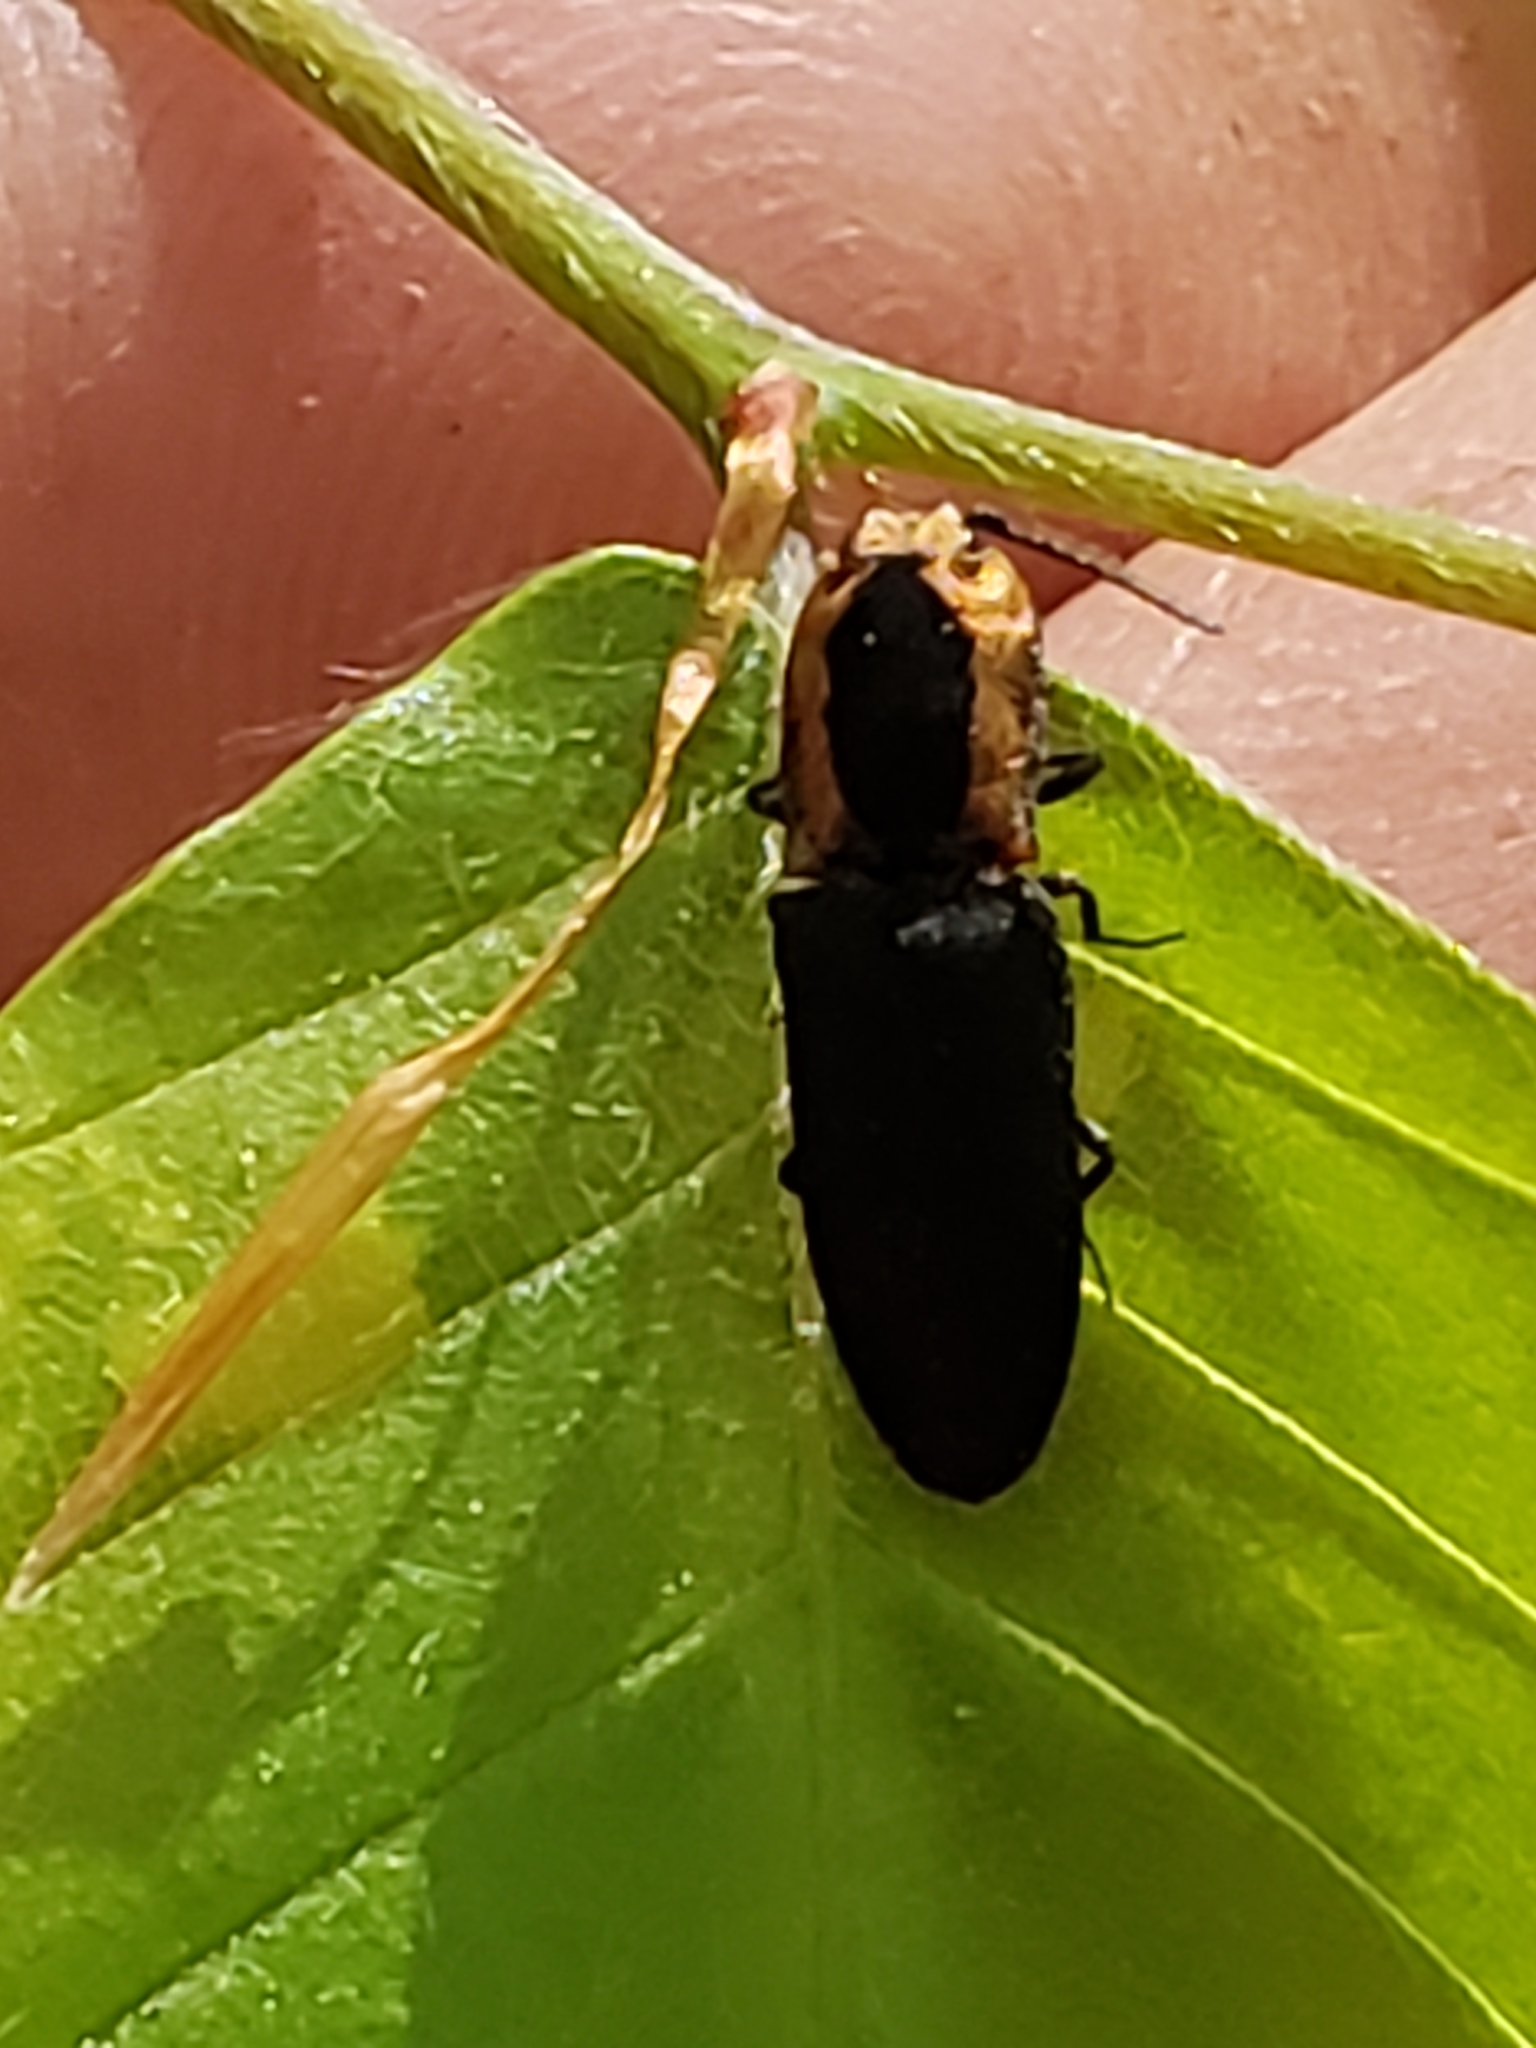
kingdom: Animalia
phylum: Arthropoda
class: Insecta
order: Coleoptera
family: Elateridae
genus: Lacon
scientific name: Lacon discoideus
